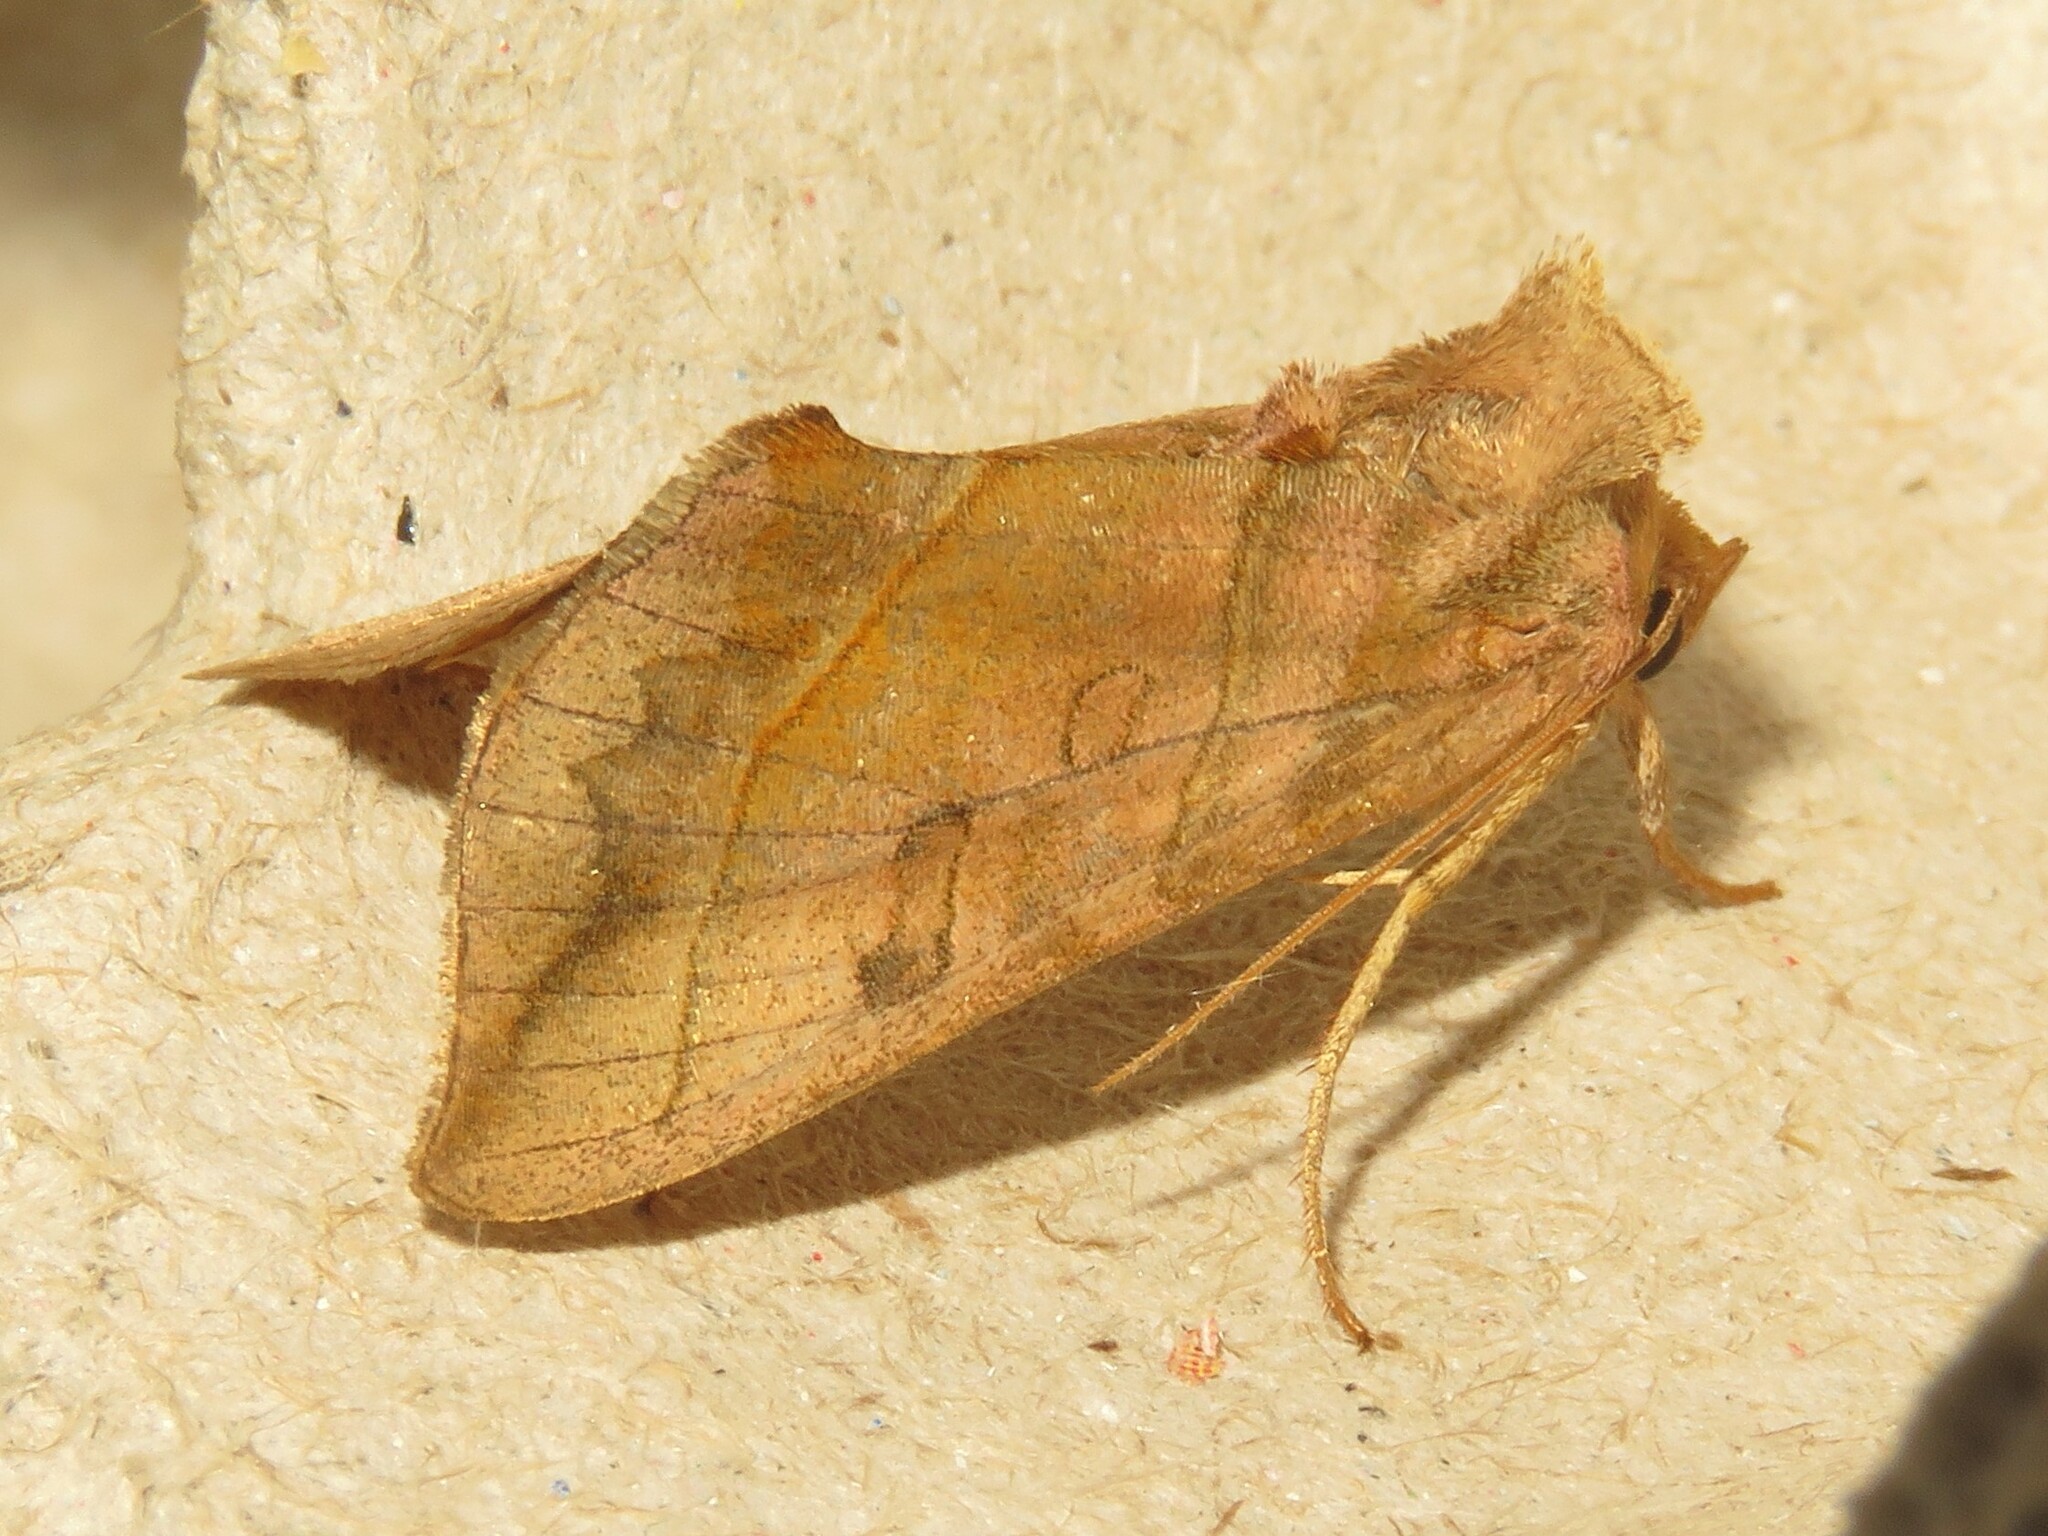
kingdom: Animalia
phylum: Arthropoda
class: Insecta
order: Lepidoptera
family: Noctuidae
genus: Diachrysia
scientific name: Diachrysia aereoides
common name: Dark-spotted looper moth
